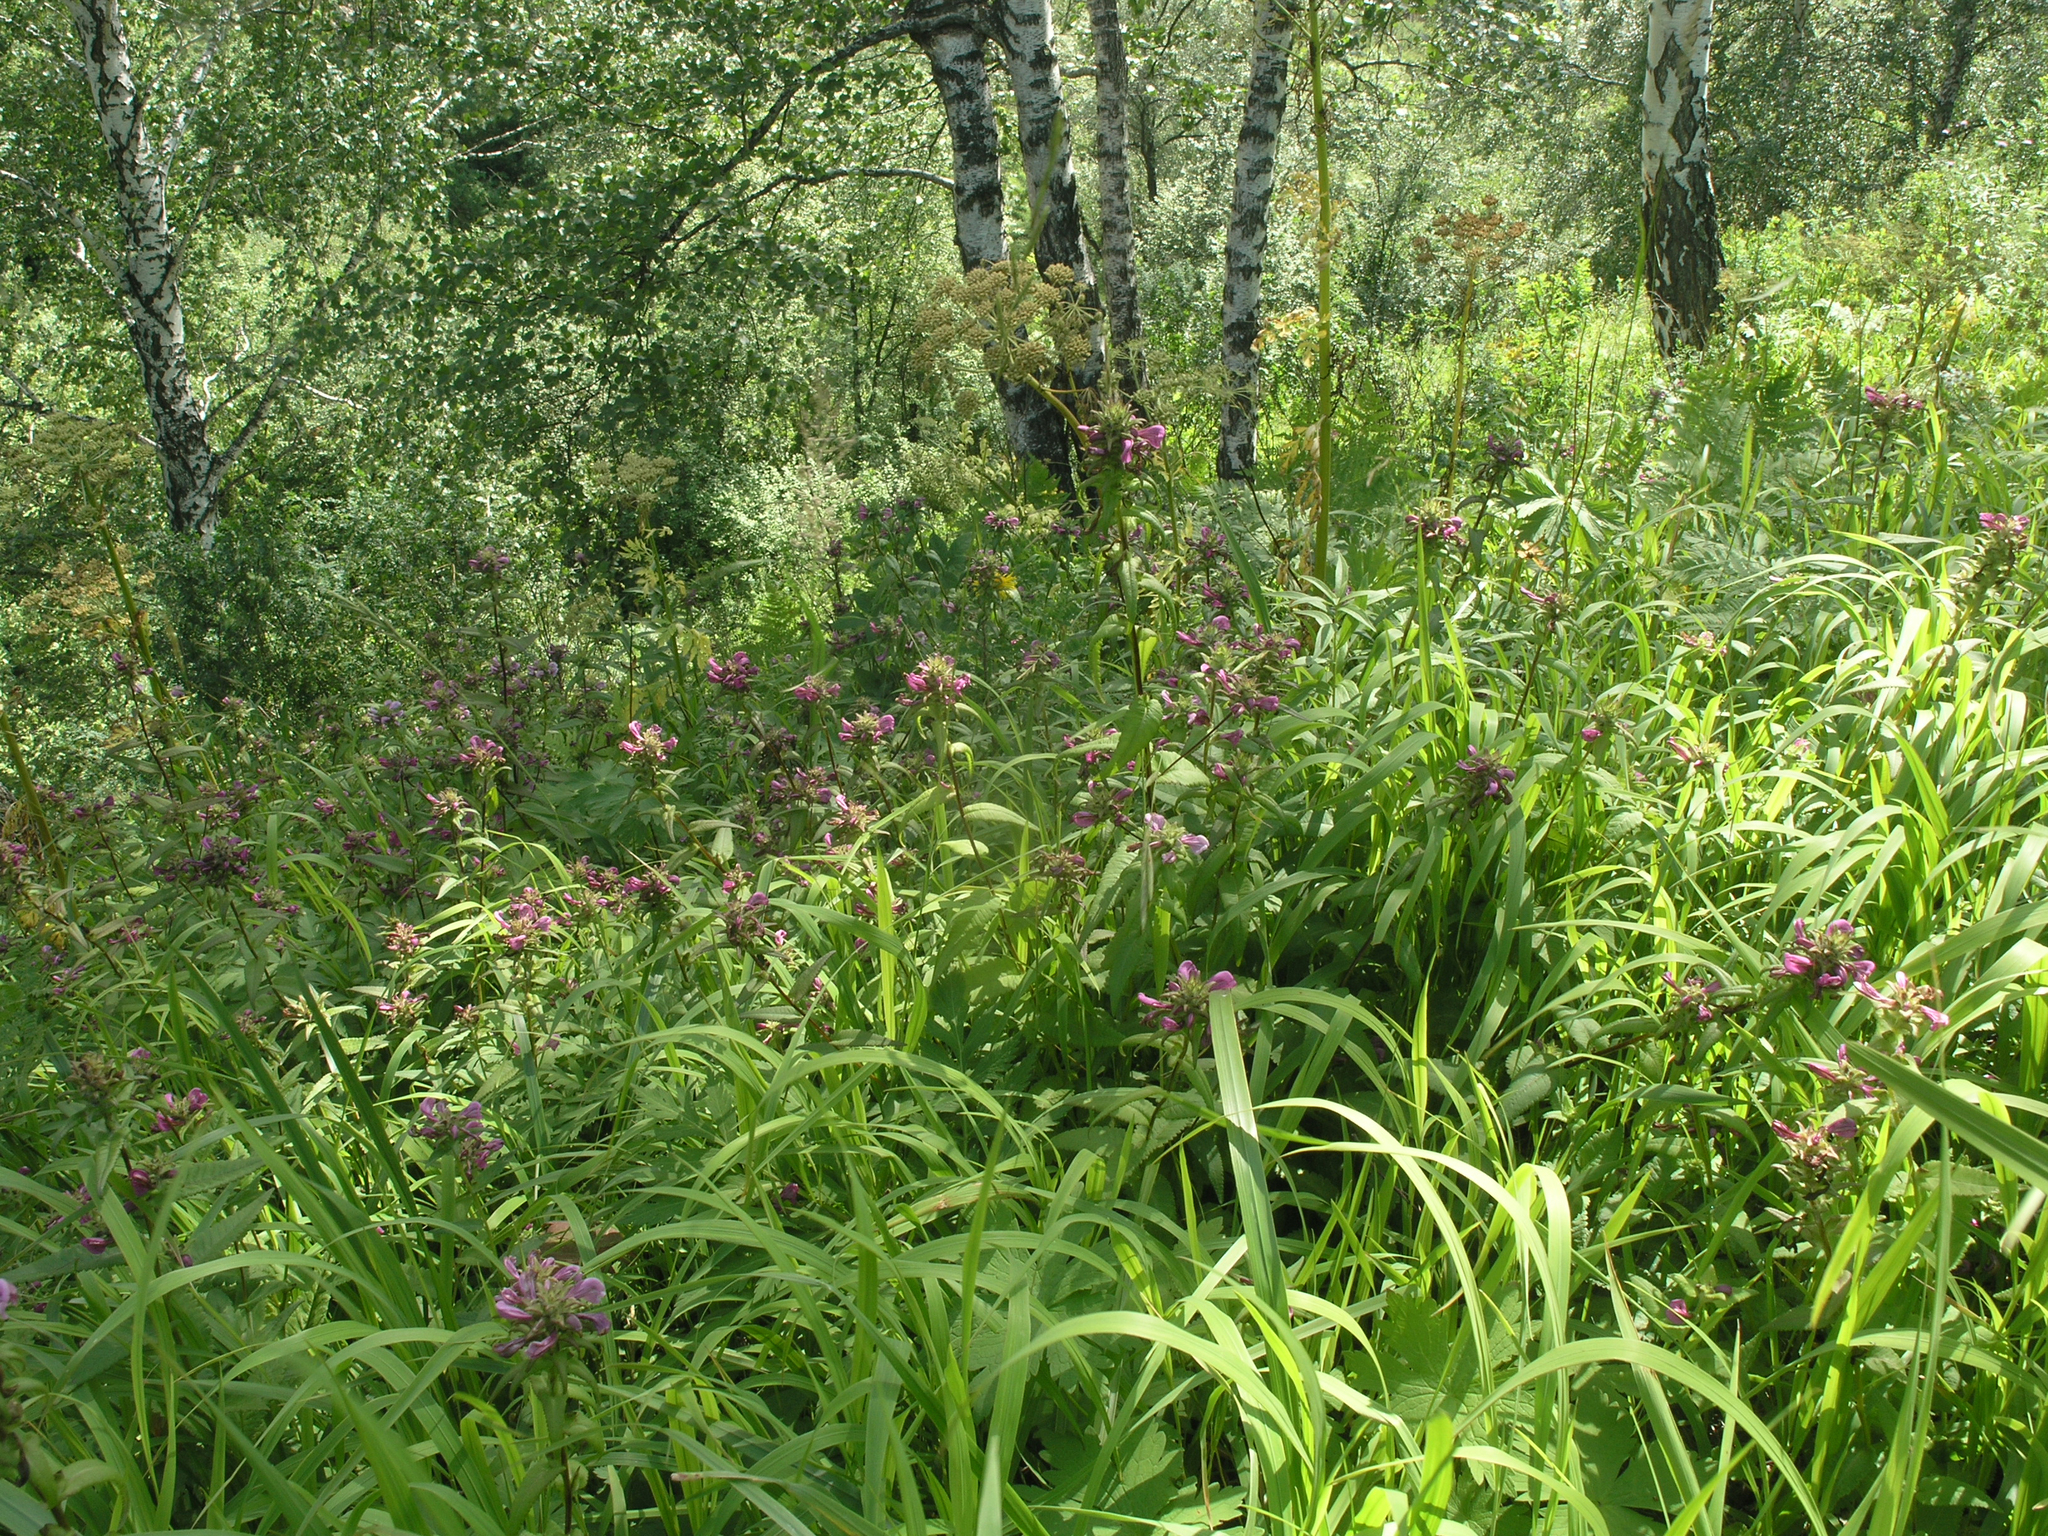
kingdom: Plantae
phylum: Tracheophyta
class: Magnoliopsida
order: Lamiales
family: Orobanchaceae
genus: Pedicularis
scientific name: Pedicularis resupinata
